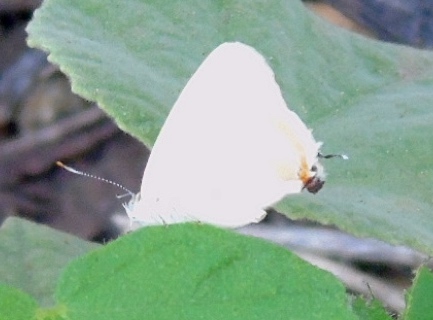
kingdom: Animalia
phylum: Arthropoda
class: Insecta
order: Lepidoptera
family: Lycaenidae
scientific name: Lycaenidae
